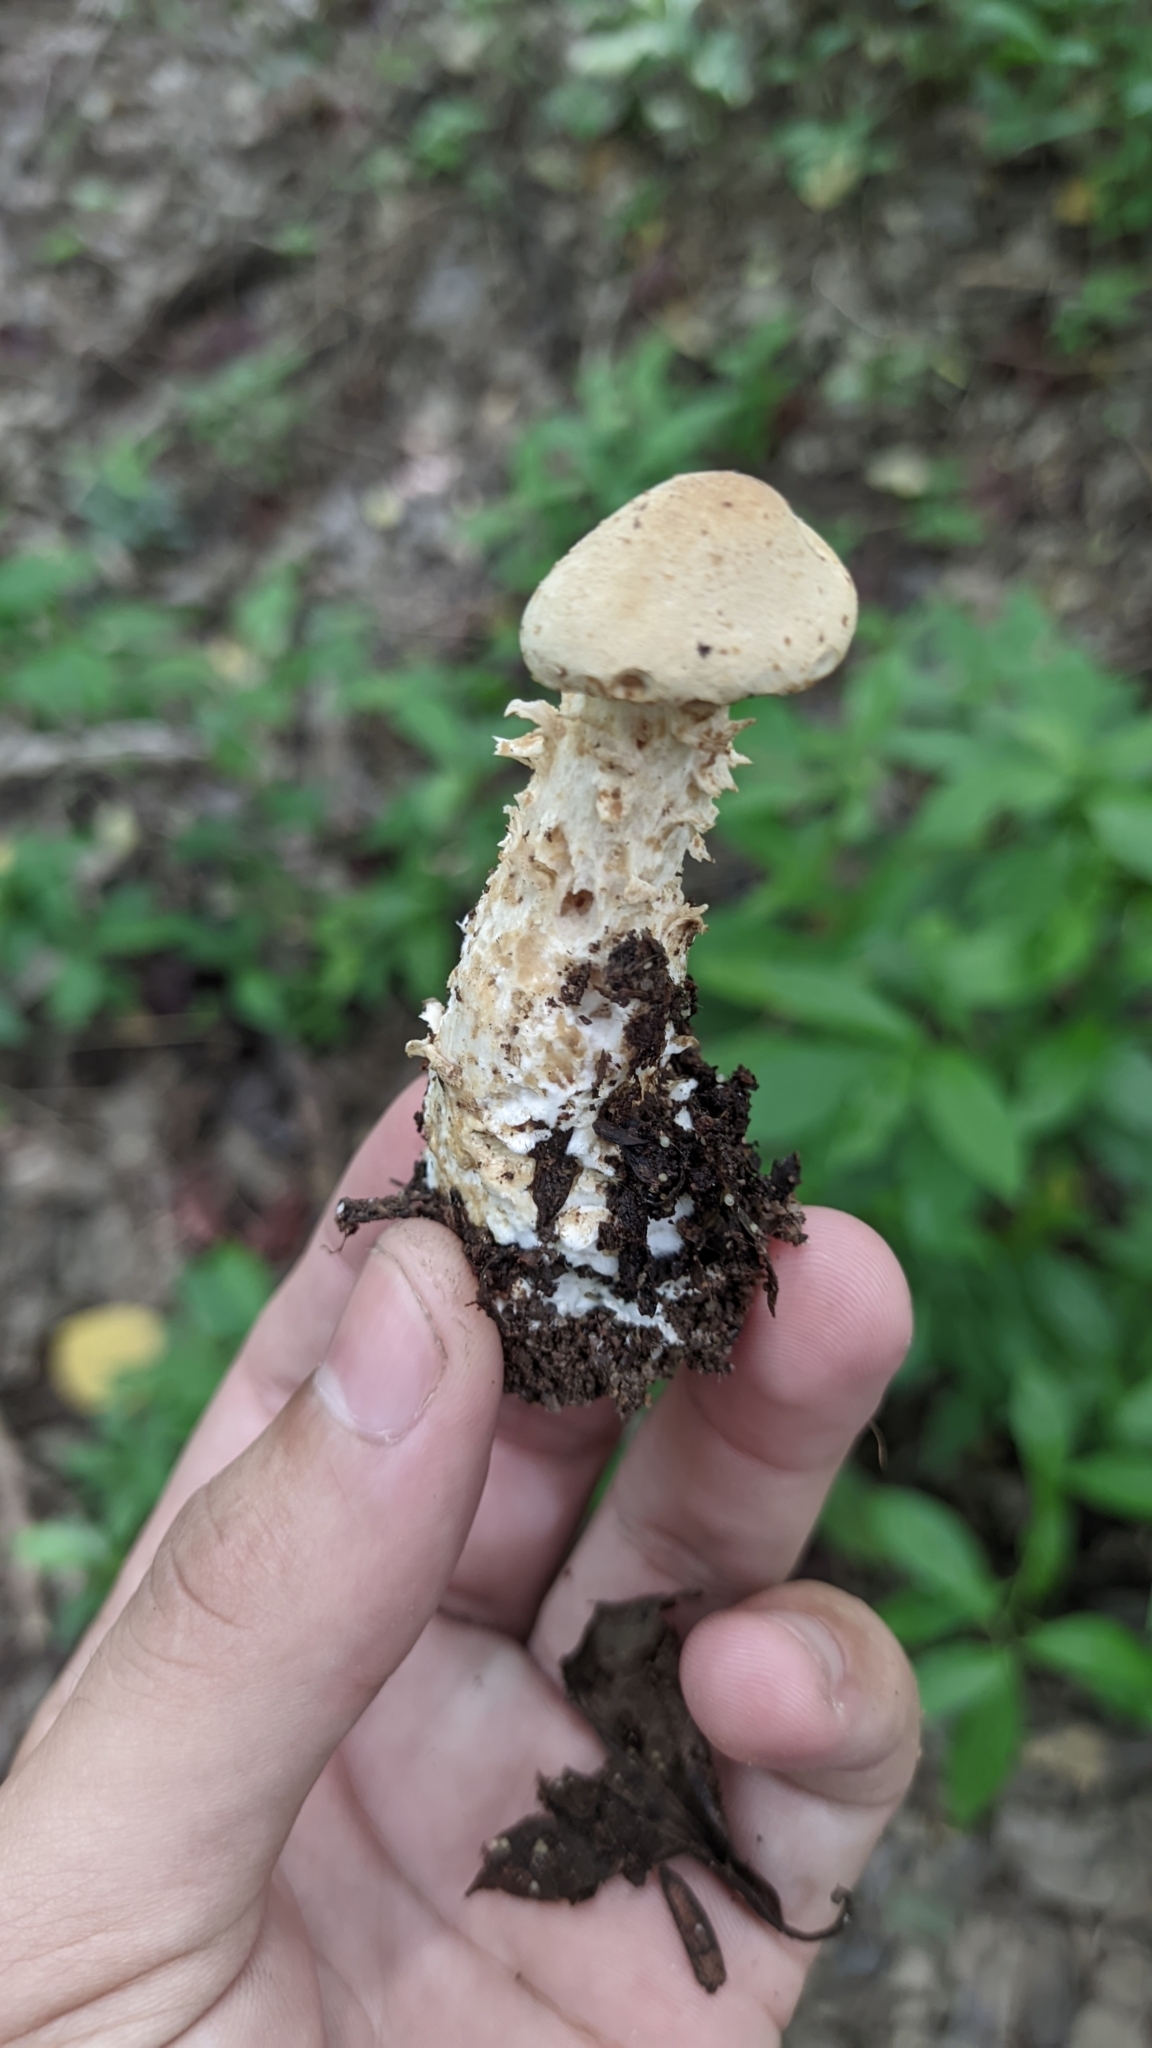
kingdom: Fungi
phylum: Basidiomycota
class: Agaricomycetes
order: Agaricales
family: Callistosporiaceae
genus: Macrocybe
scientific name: Macrocybe titans
